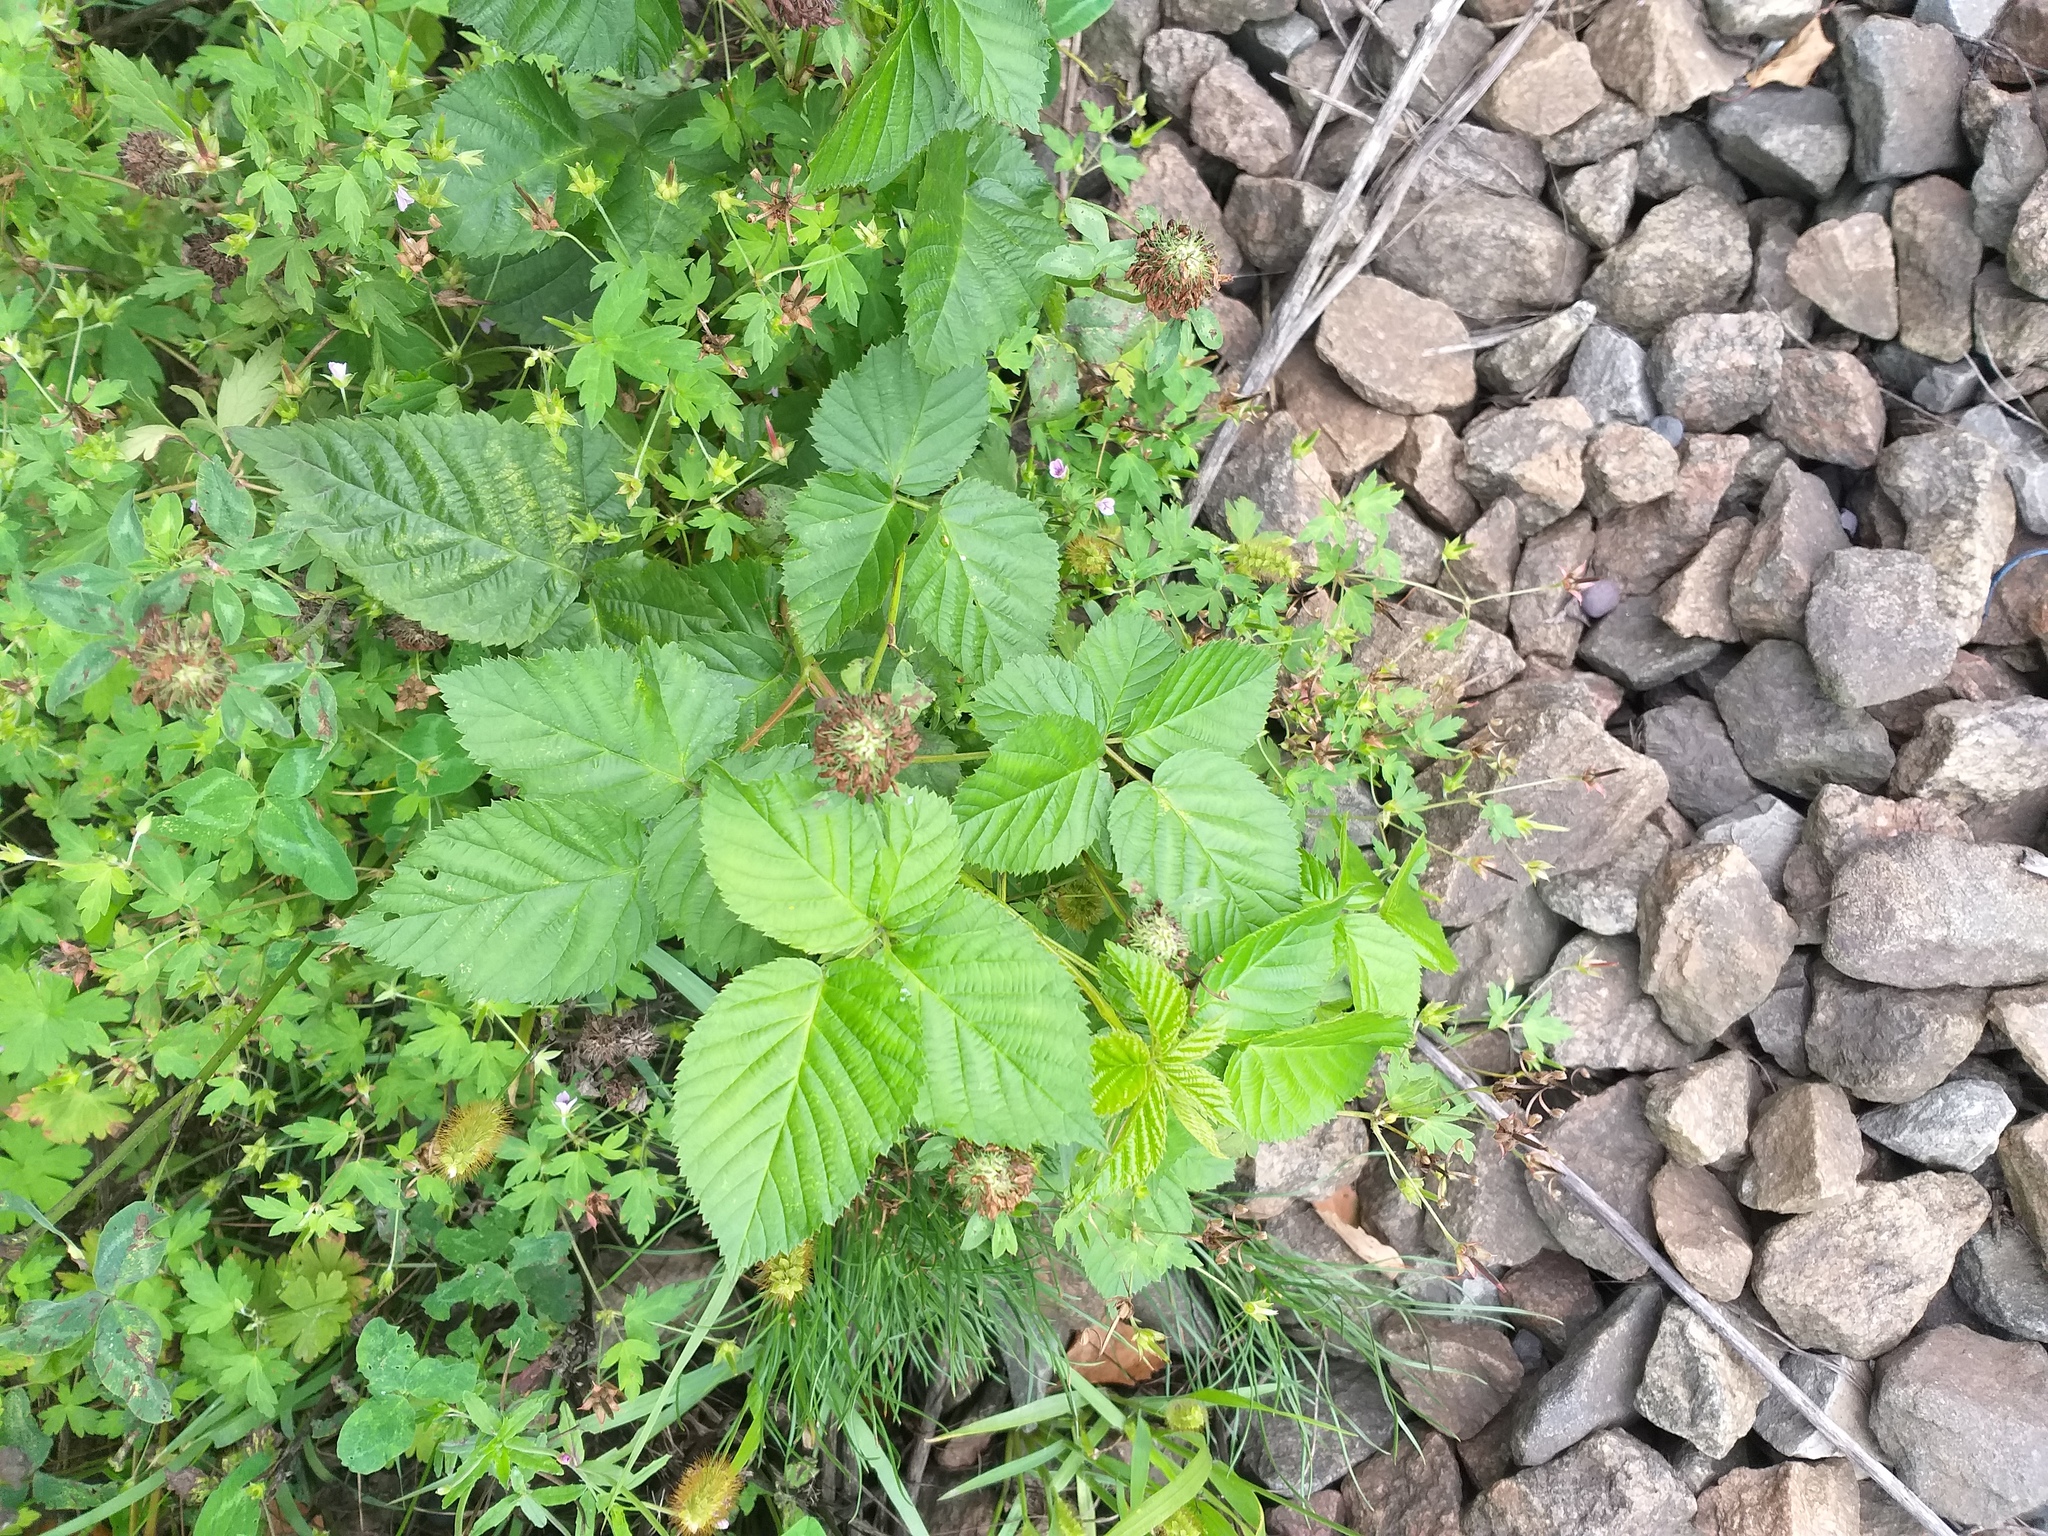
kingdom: Plantae
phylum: Tracheophyta
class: Magnoliopsida
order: Rosales
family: Rosaceae
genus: Rubus
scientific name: Rubus polonicus
